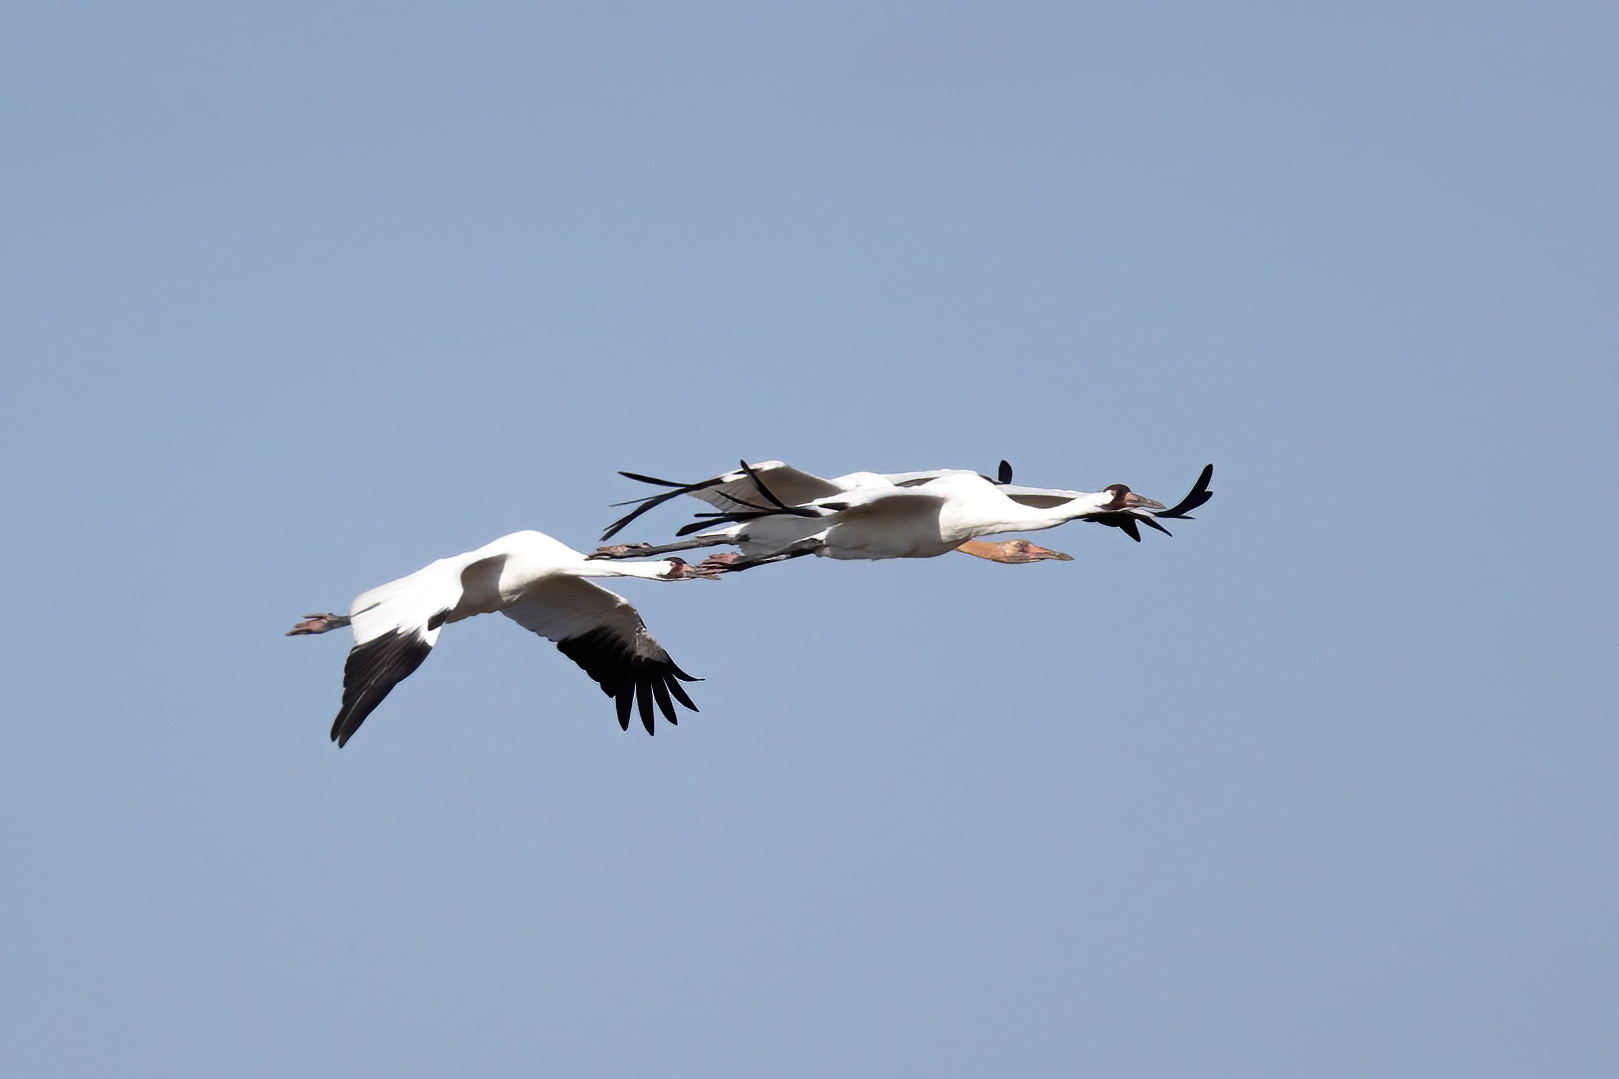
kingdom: Animalia
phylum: Chordata
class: Aves
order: Gruiformes
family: Gruidae
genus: Grus
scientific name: Grus americana
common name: Whooping crane
